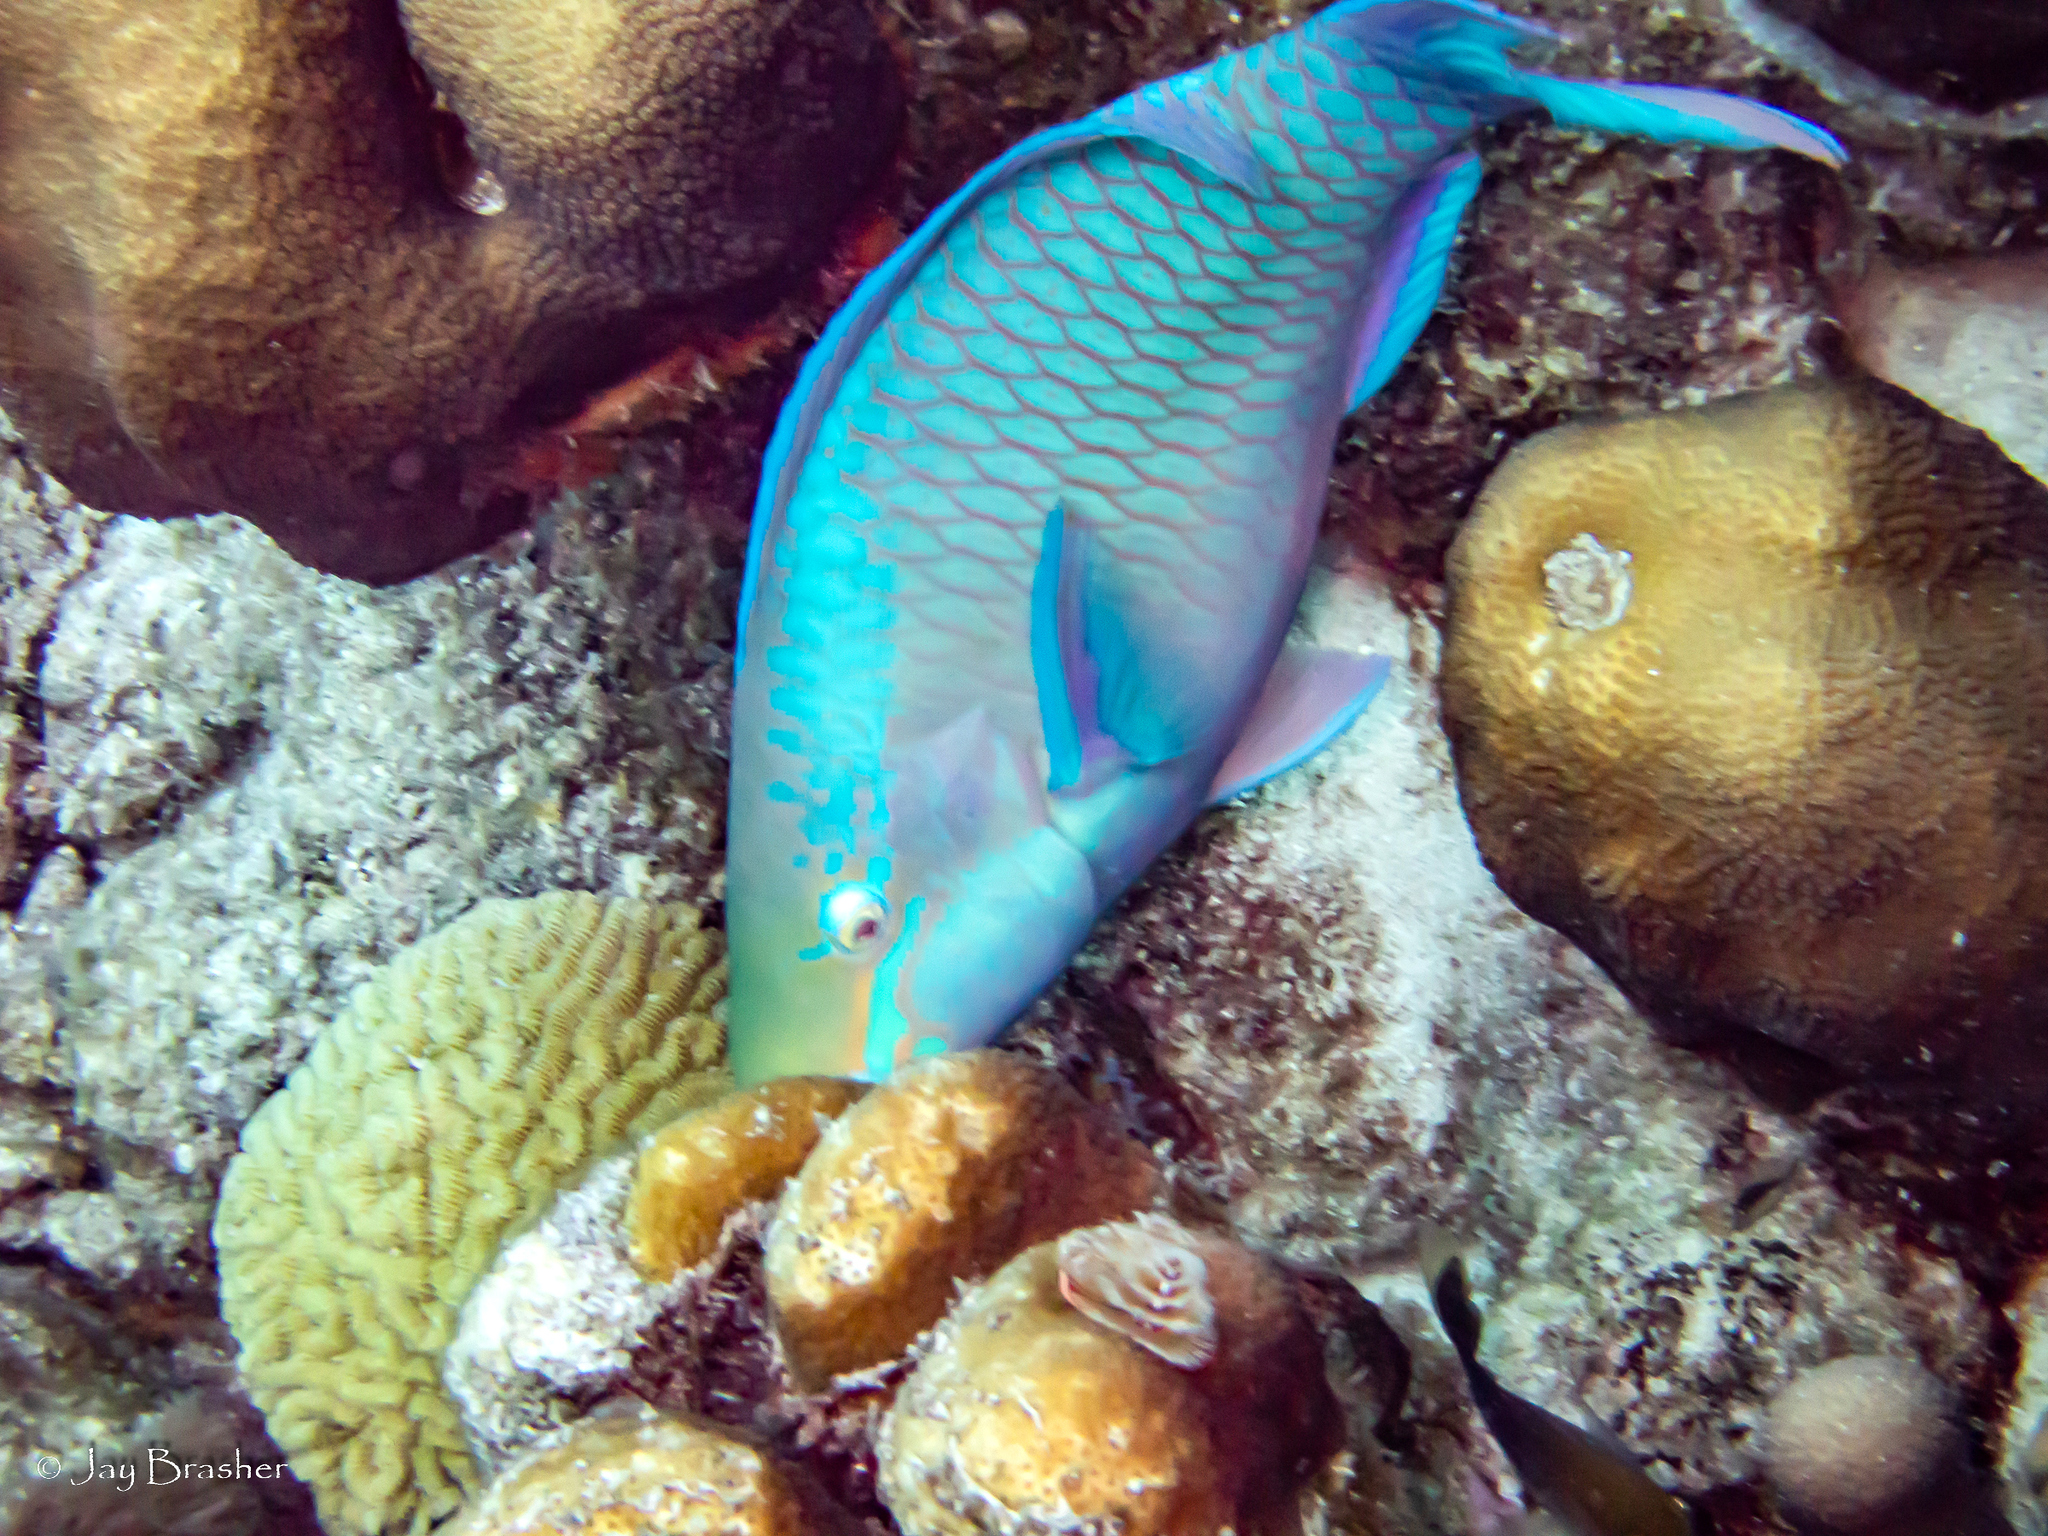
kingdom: Animalia
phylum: Cnidaria
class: Anthozoa
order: Scleractinia
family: Meandrinidae
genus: Meandrina
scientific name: Meandrina meandrites
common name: Maze coral
